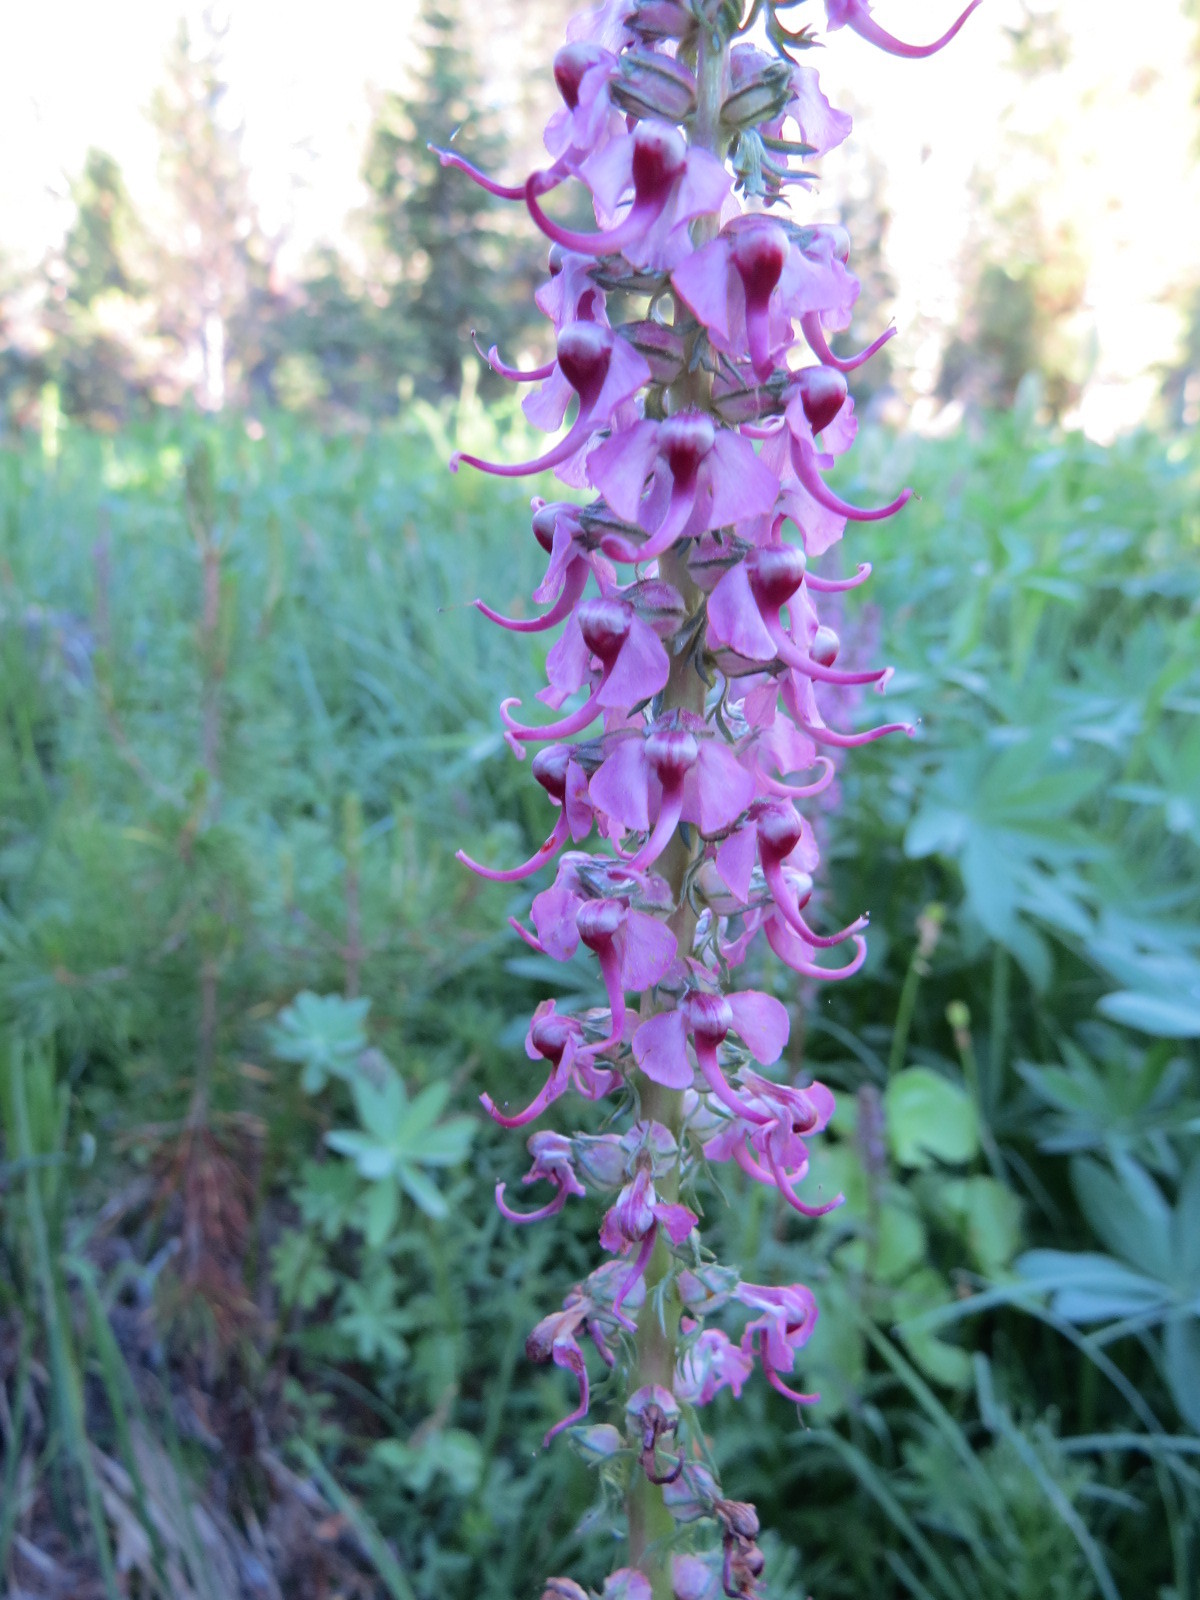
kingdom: Plantae
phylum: Tracheophyta
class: Magnoliopsida
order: Lamiales
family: Orobanchaceae
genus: Pedicularis
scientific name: Pedicularis groenlandica
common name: Elephant's-head
